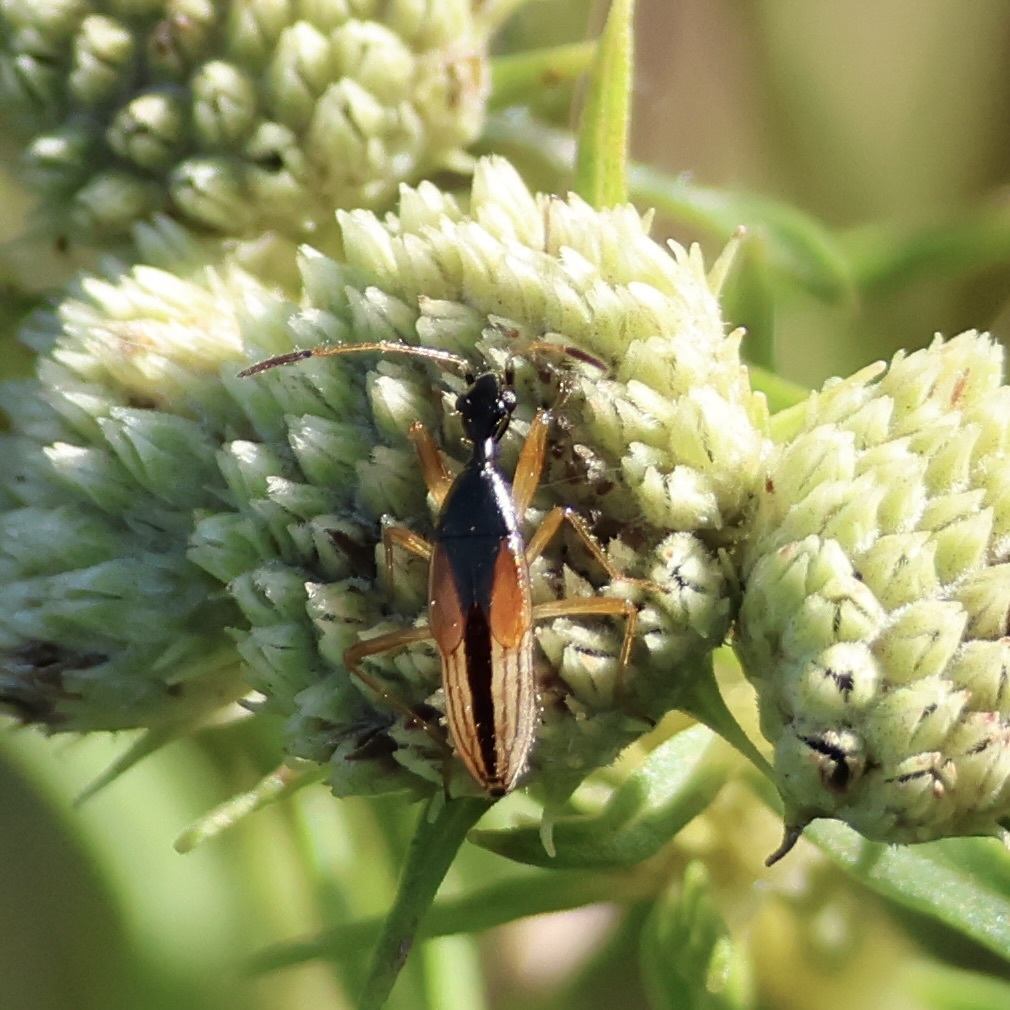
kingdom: Animalia
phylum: Arthropoda
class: Insecta
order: Hemiptera
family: Rhyparochromidae
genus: Myodocha
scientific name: Myodocha serripes
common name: Long-necked seed bug
